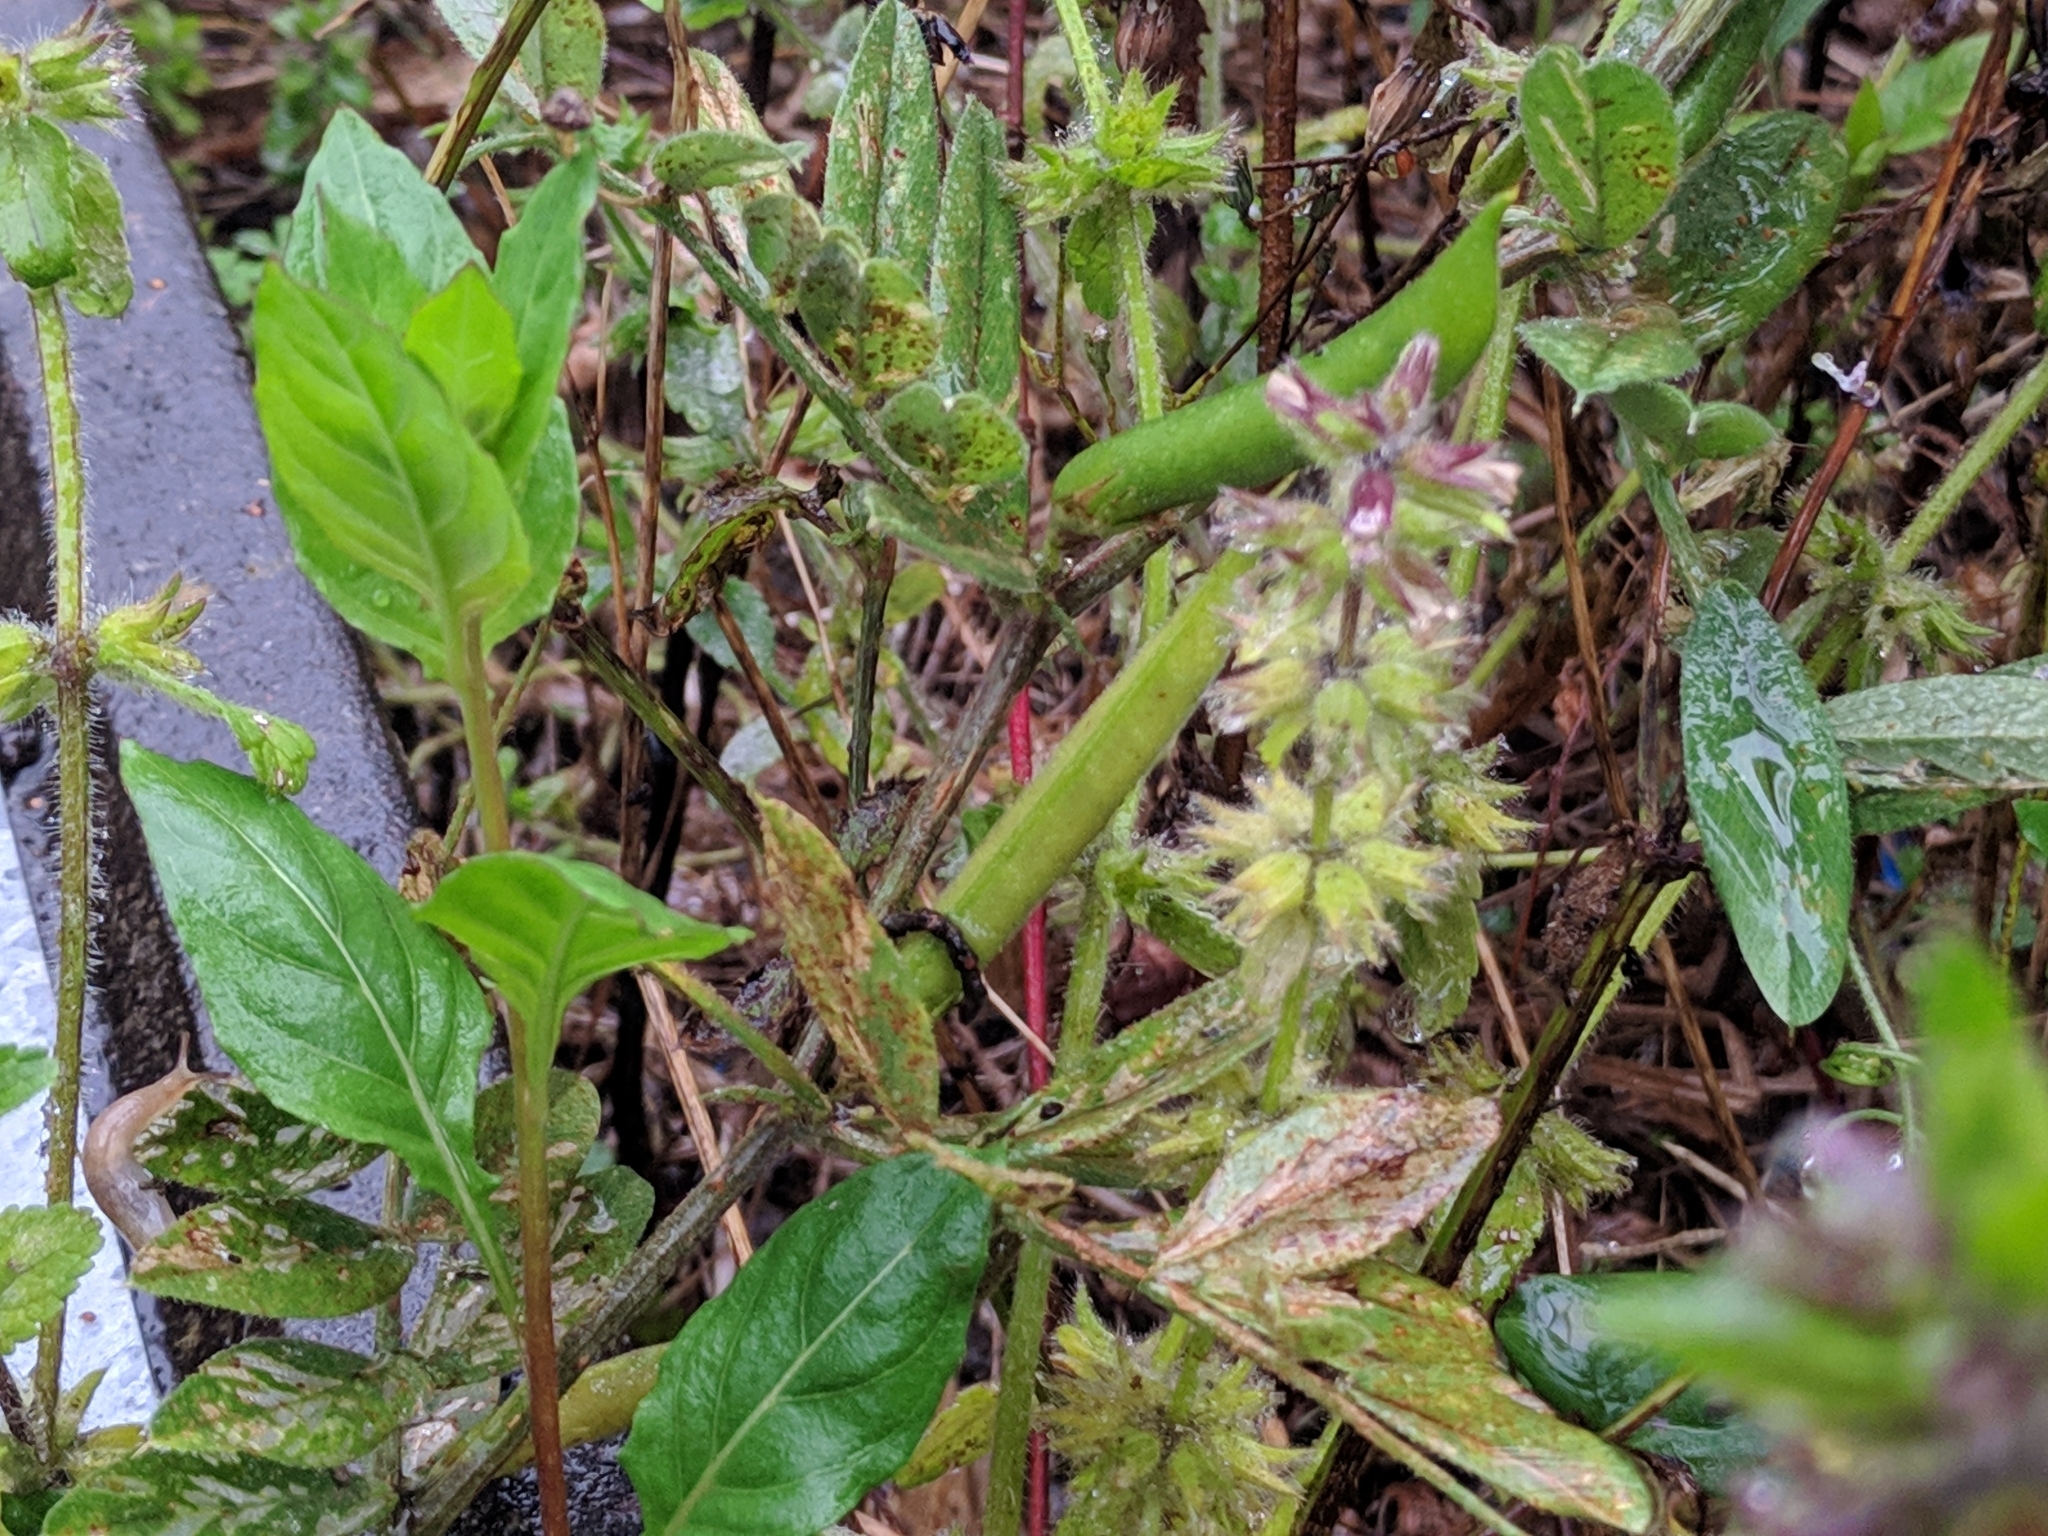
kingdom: Plantae
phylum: Tracheophyta
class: Magnoliopsida
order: Lamiales
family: Lamiaceae
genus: Stachys
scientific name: Stachys arvensis
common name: Field woundwort
